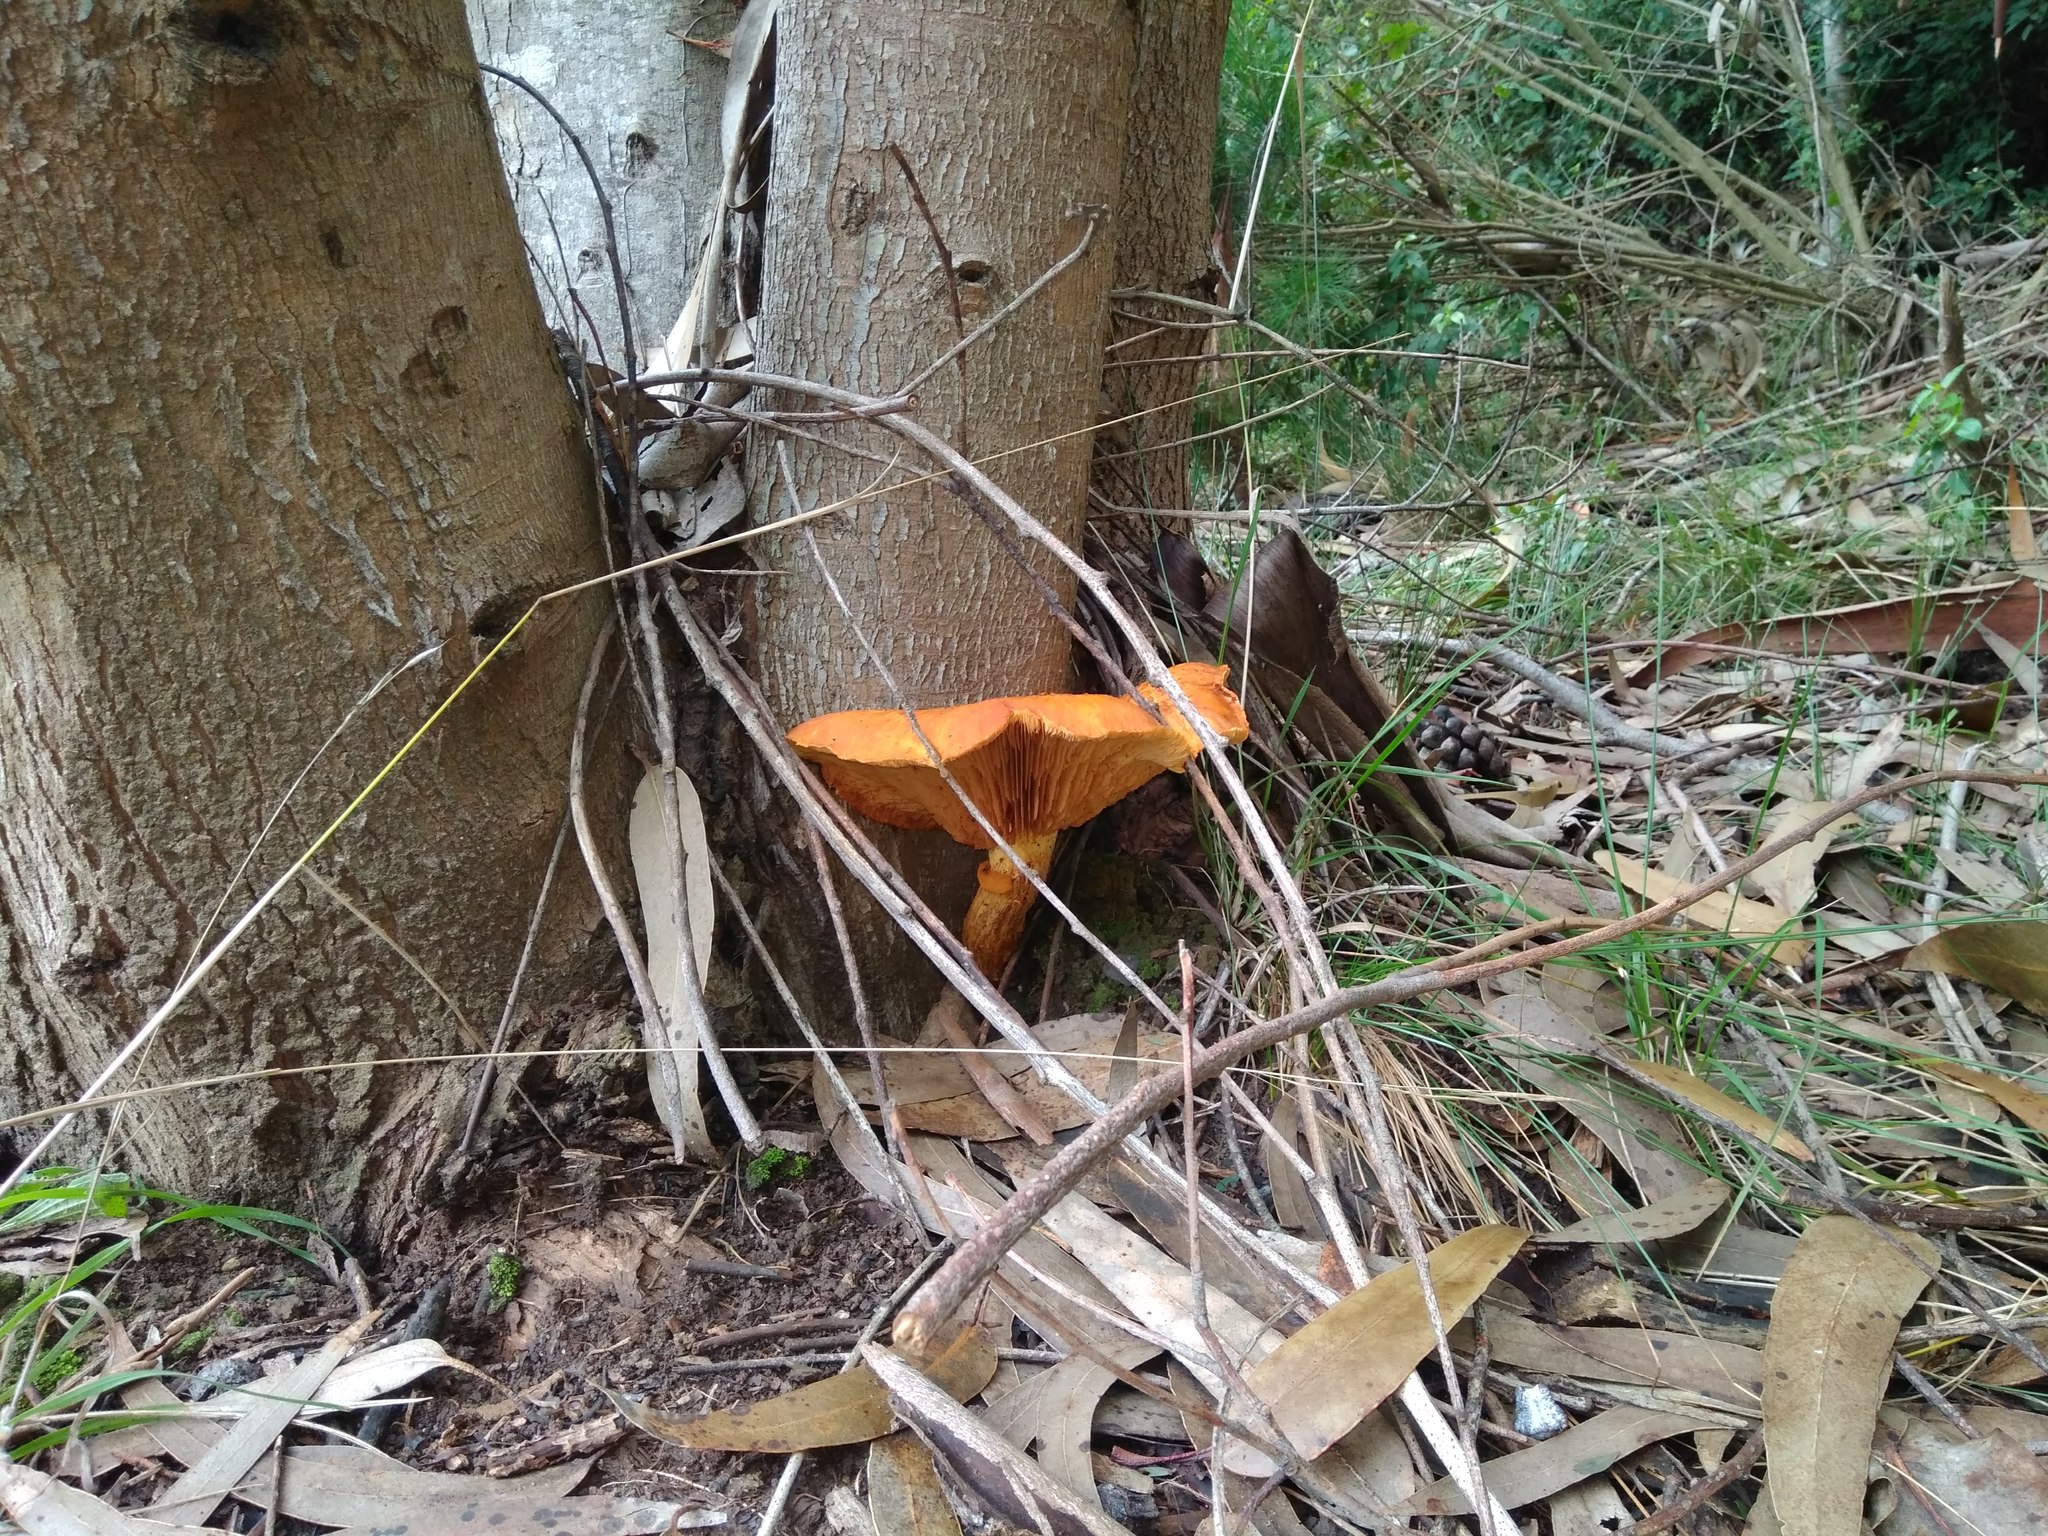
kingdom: Fungi
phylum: Basidiomycota
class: Agaricomycetes
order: Agaricales
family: Hymenogastraceae
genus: Gymnopilus
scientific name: Gymnopilus junonius
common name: Spectacular rustgill
